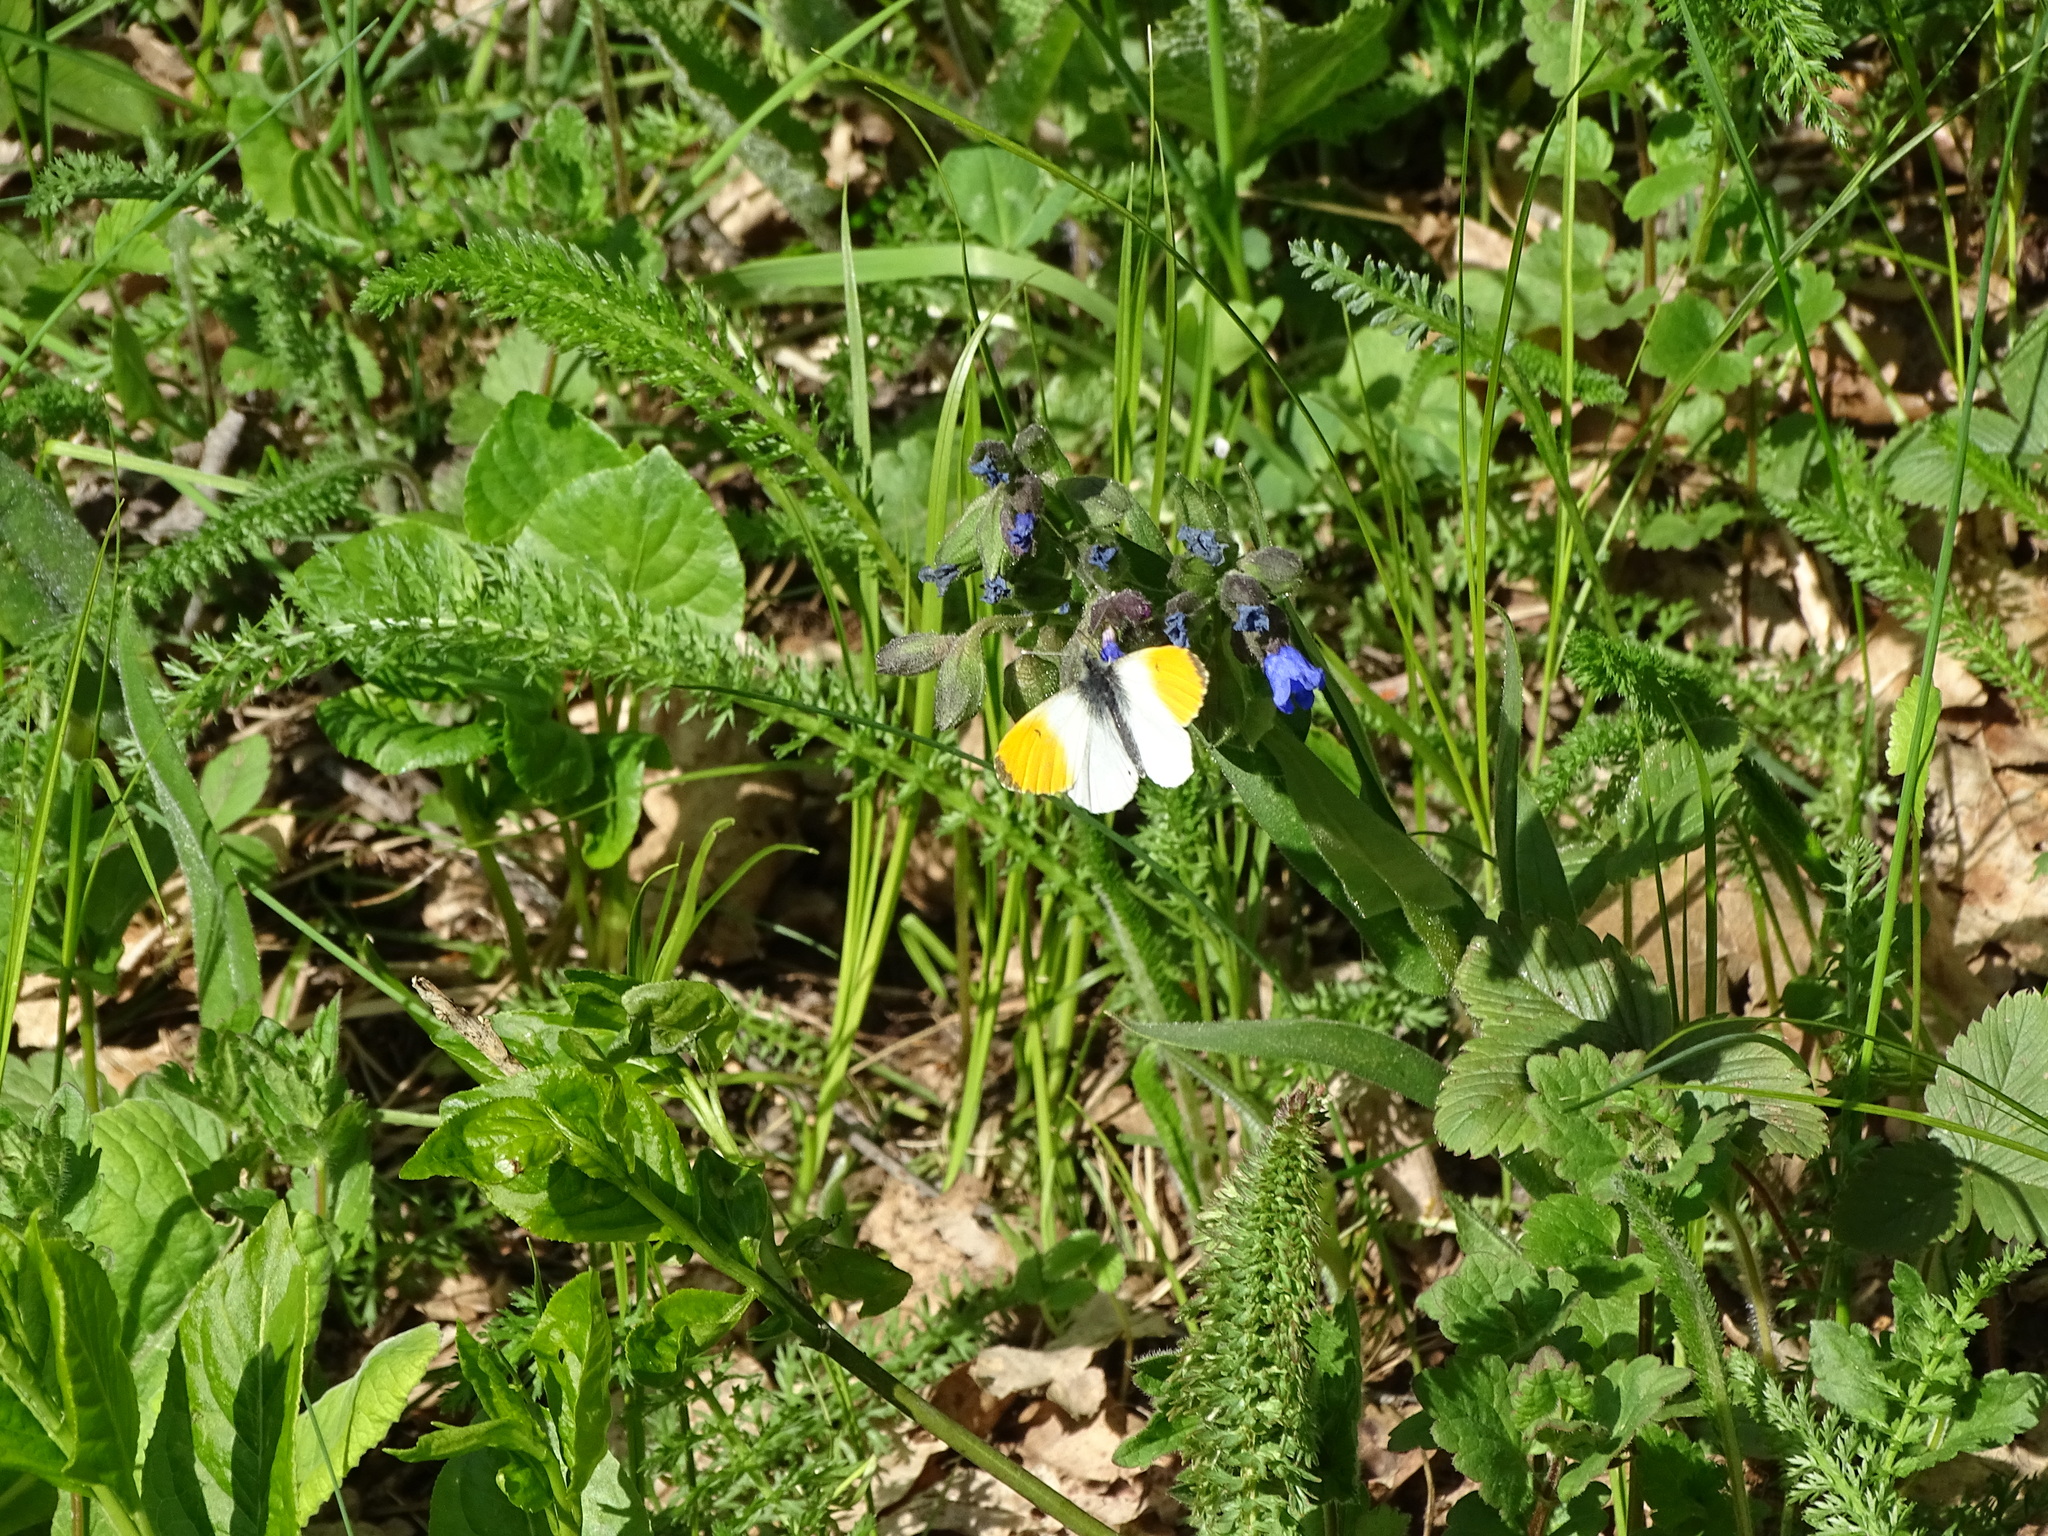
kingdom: Animalia
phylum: Arthropoda
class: Insecta
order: Lepidoptera
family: Pieridae
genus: Anthocharis
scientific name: Anthocharis cardamines
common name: Orange-tip
